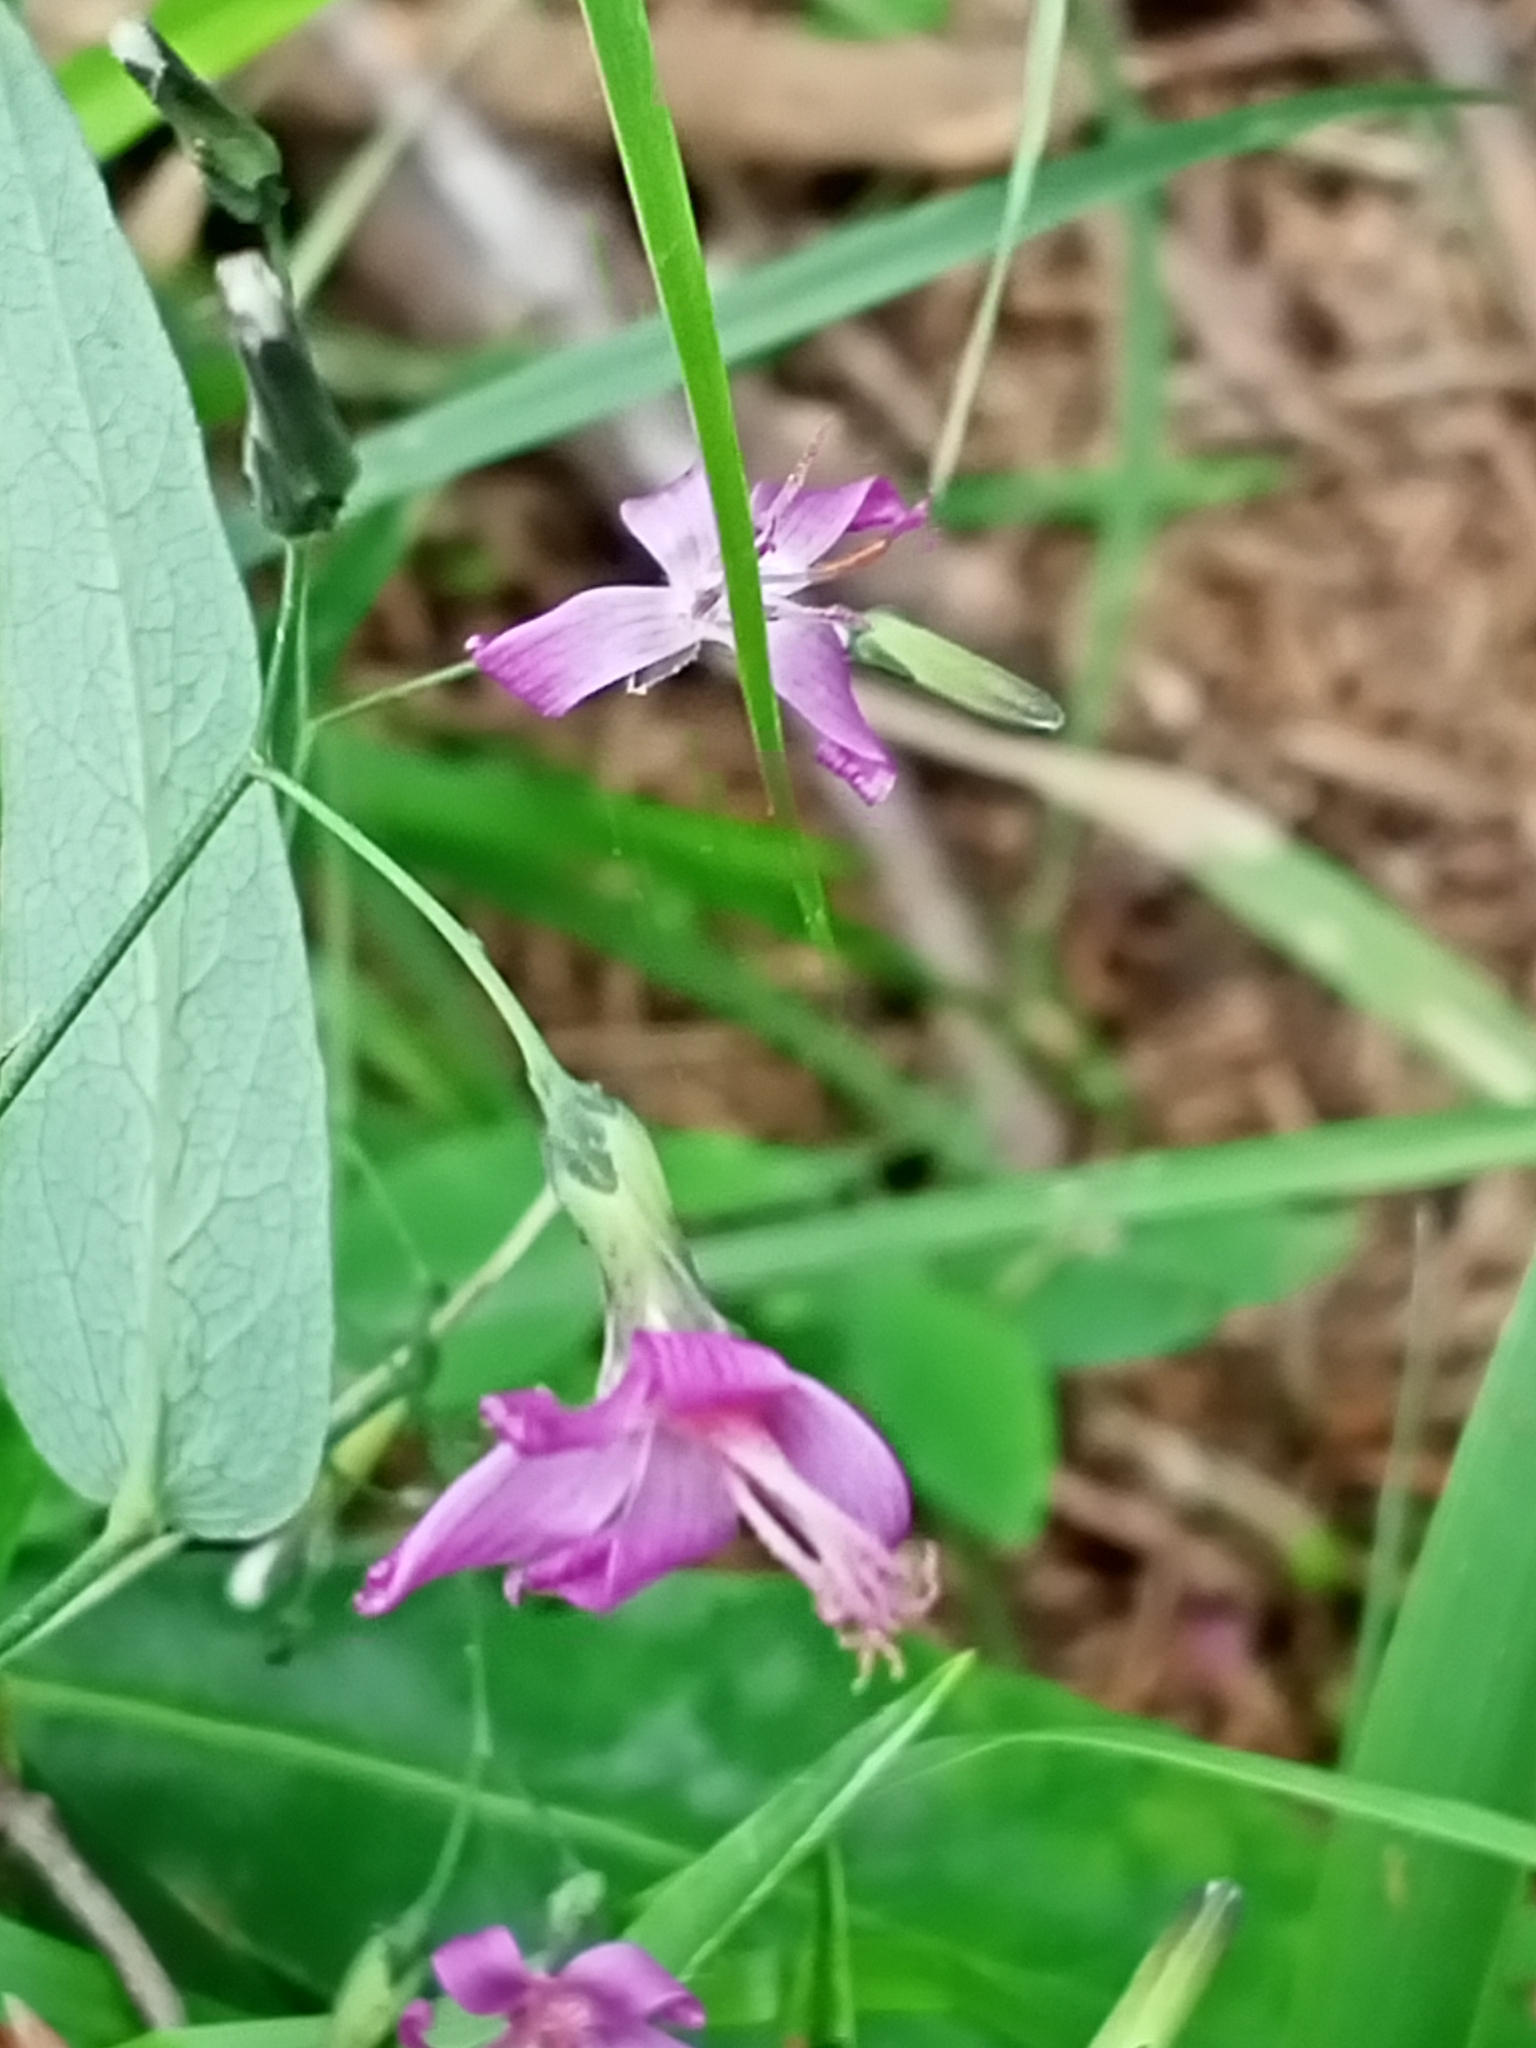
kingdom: Plantae
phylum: Tracheophyta
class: Magnoliopsida
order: Asterales
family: Asteraceae
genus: Prenanthes
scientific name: Prenanthes purpurea
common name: Purple lettuce
